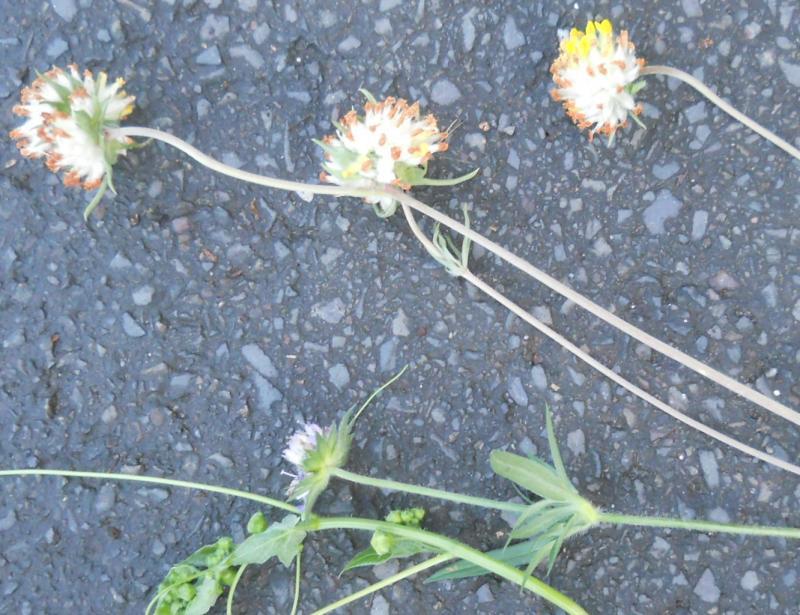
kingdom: Plantae
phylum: Tracheophyta
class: Magnoliopsida
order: Fabales
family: Fabaceae
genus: Anthyllis
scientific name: Anthyllis vulneraria
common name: Kidney vetch
